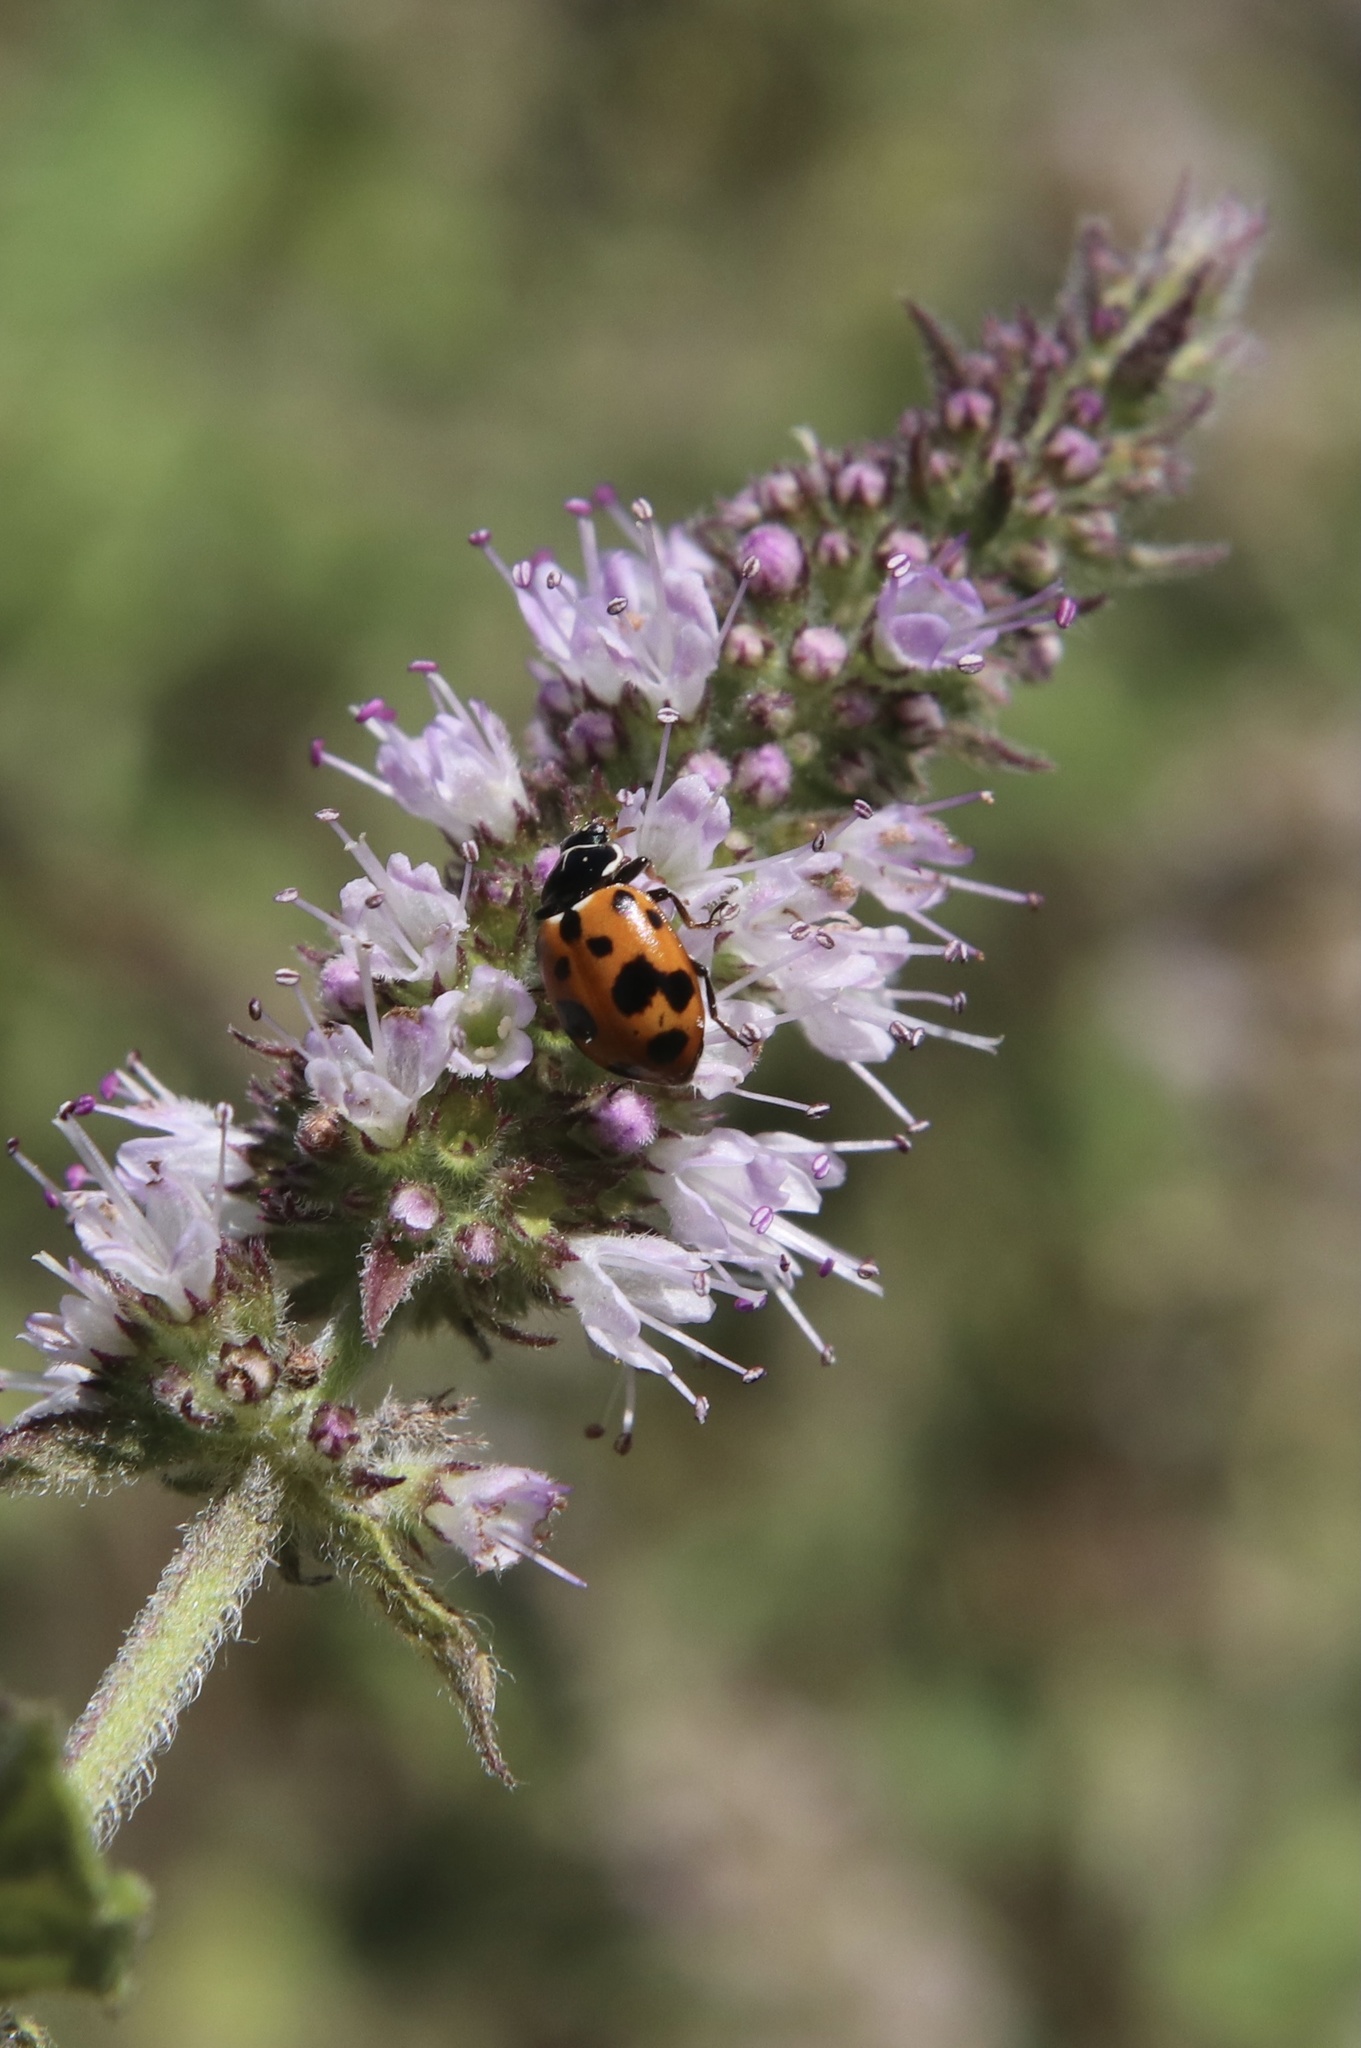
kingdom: Animalia
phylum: Arthropoda
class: Insecta
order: Coleoptera
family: Coccinellidae
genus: Hippodamia
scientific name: Hippodamia variegata
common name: Ladybird beetle
